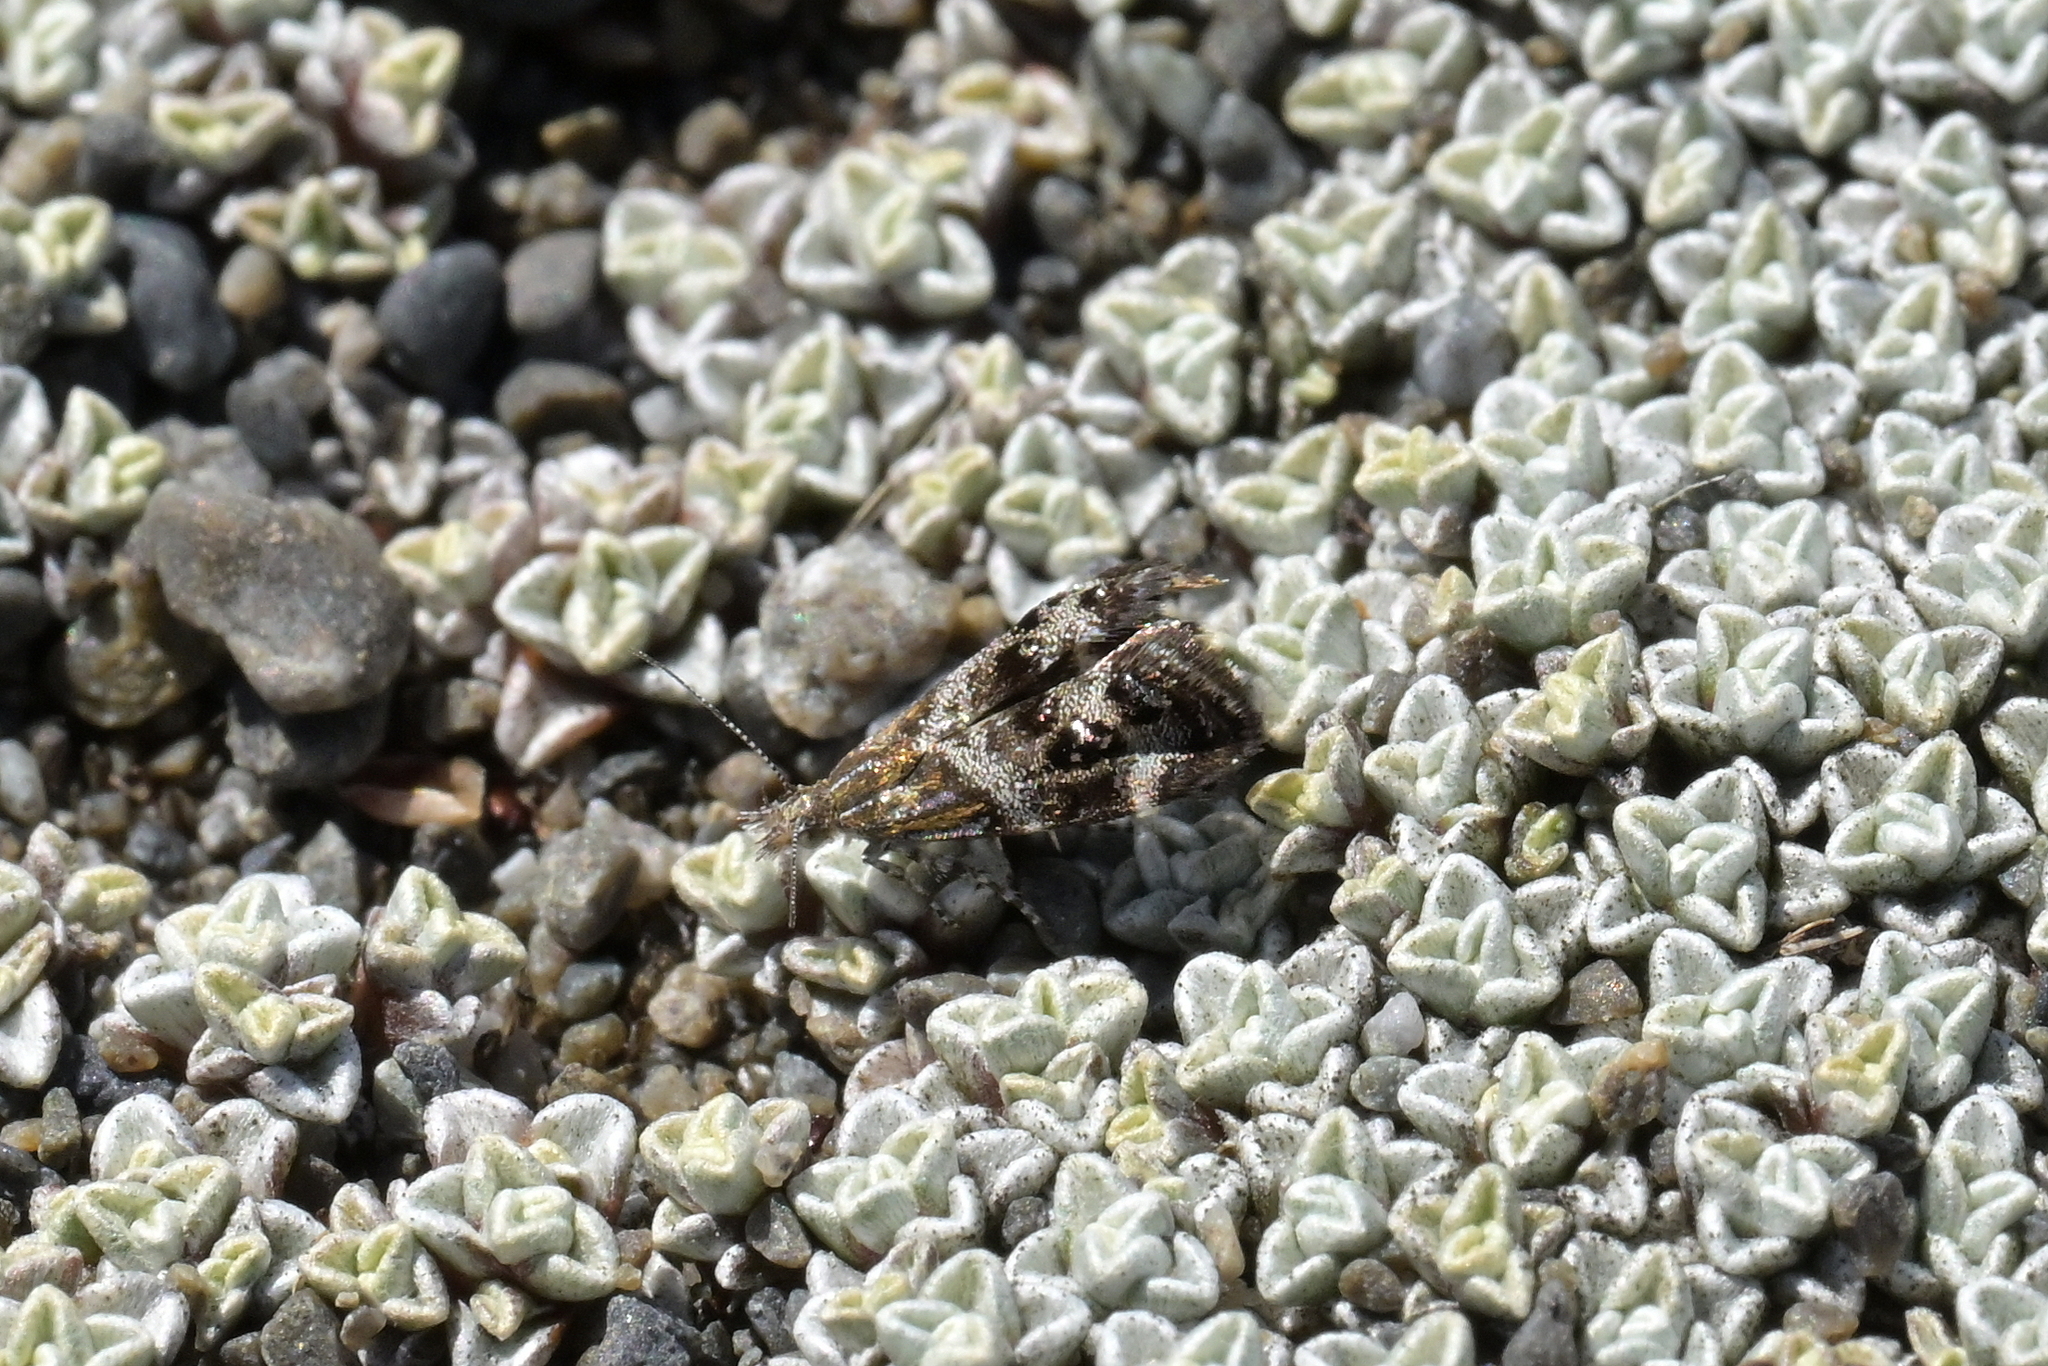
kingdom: Animalia
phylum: Arthropoda
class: Insecta
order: Lepidoptera
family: Choreutidae
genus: Tebenna
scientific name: Tebenna micalis
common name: Vagrant twitcher
